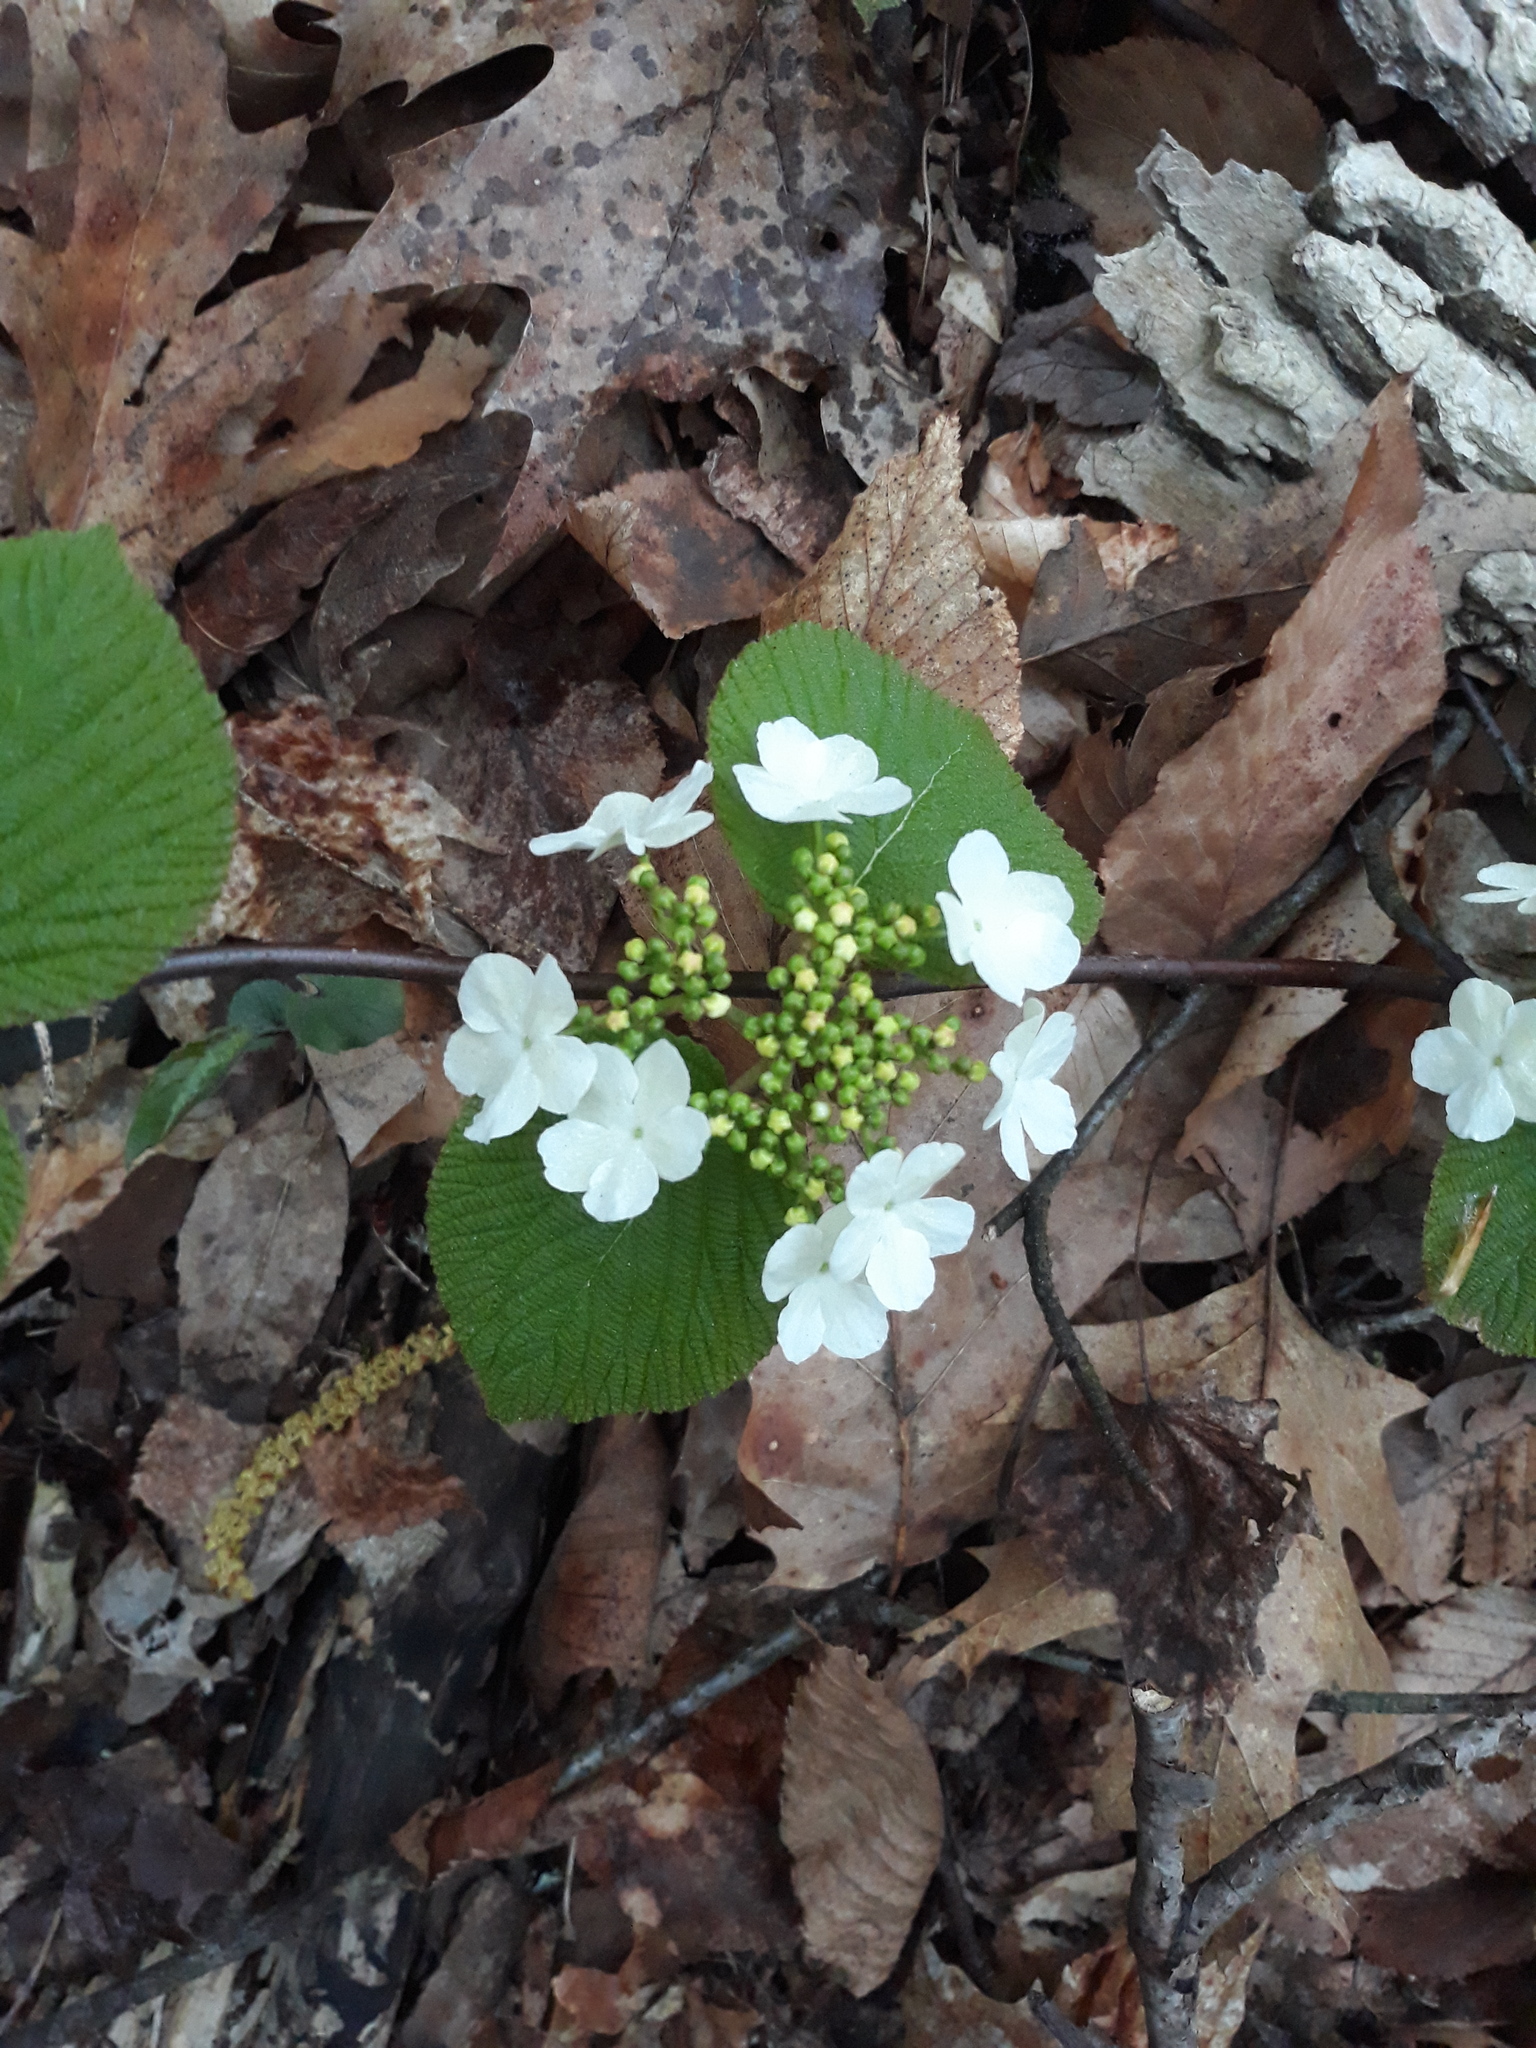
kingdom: Plantae
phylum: Tracheophyta
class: Magnoliopsida
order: Dipsacales
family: Viburnaceae
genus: Viburnum
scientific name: Viburnum lantanoides
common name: Hobblebush
